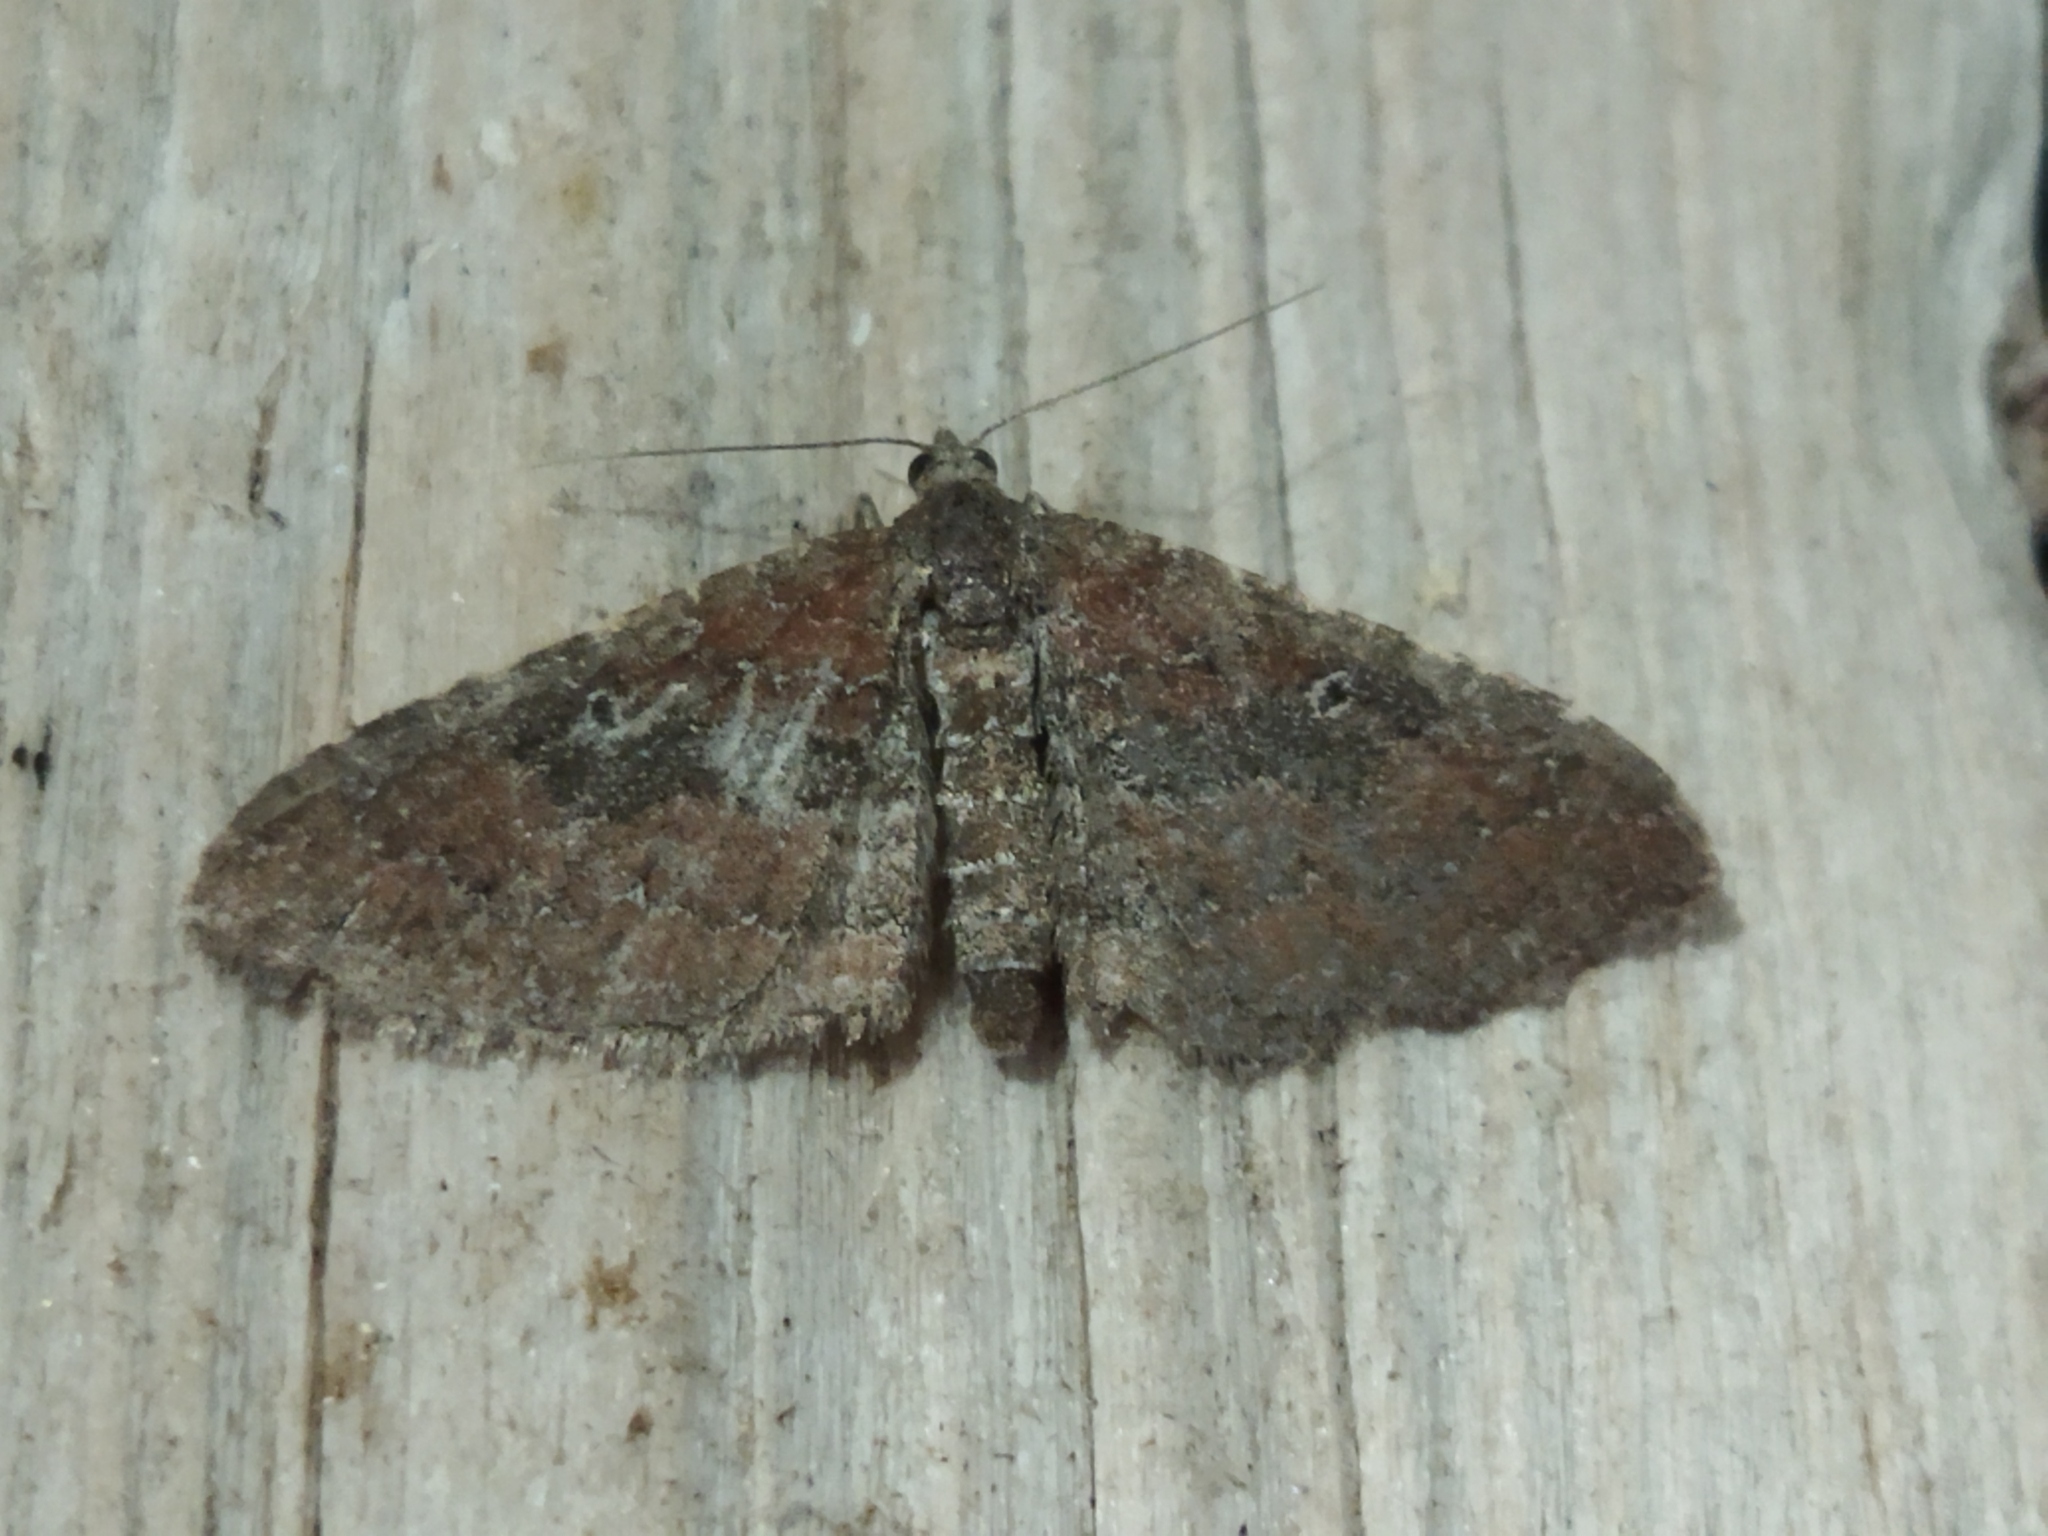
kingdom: Animalia
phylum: Arthropoda
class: Insecta
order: Lepidoptera
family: Geometridae
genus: Orthonama
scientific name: Orthonama obstipata
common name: The gem
